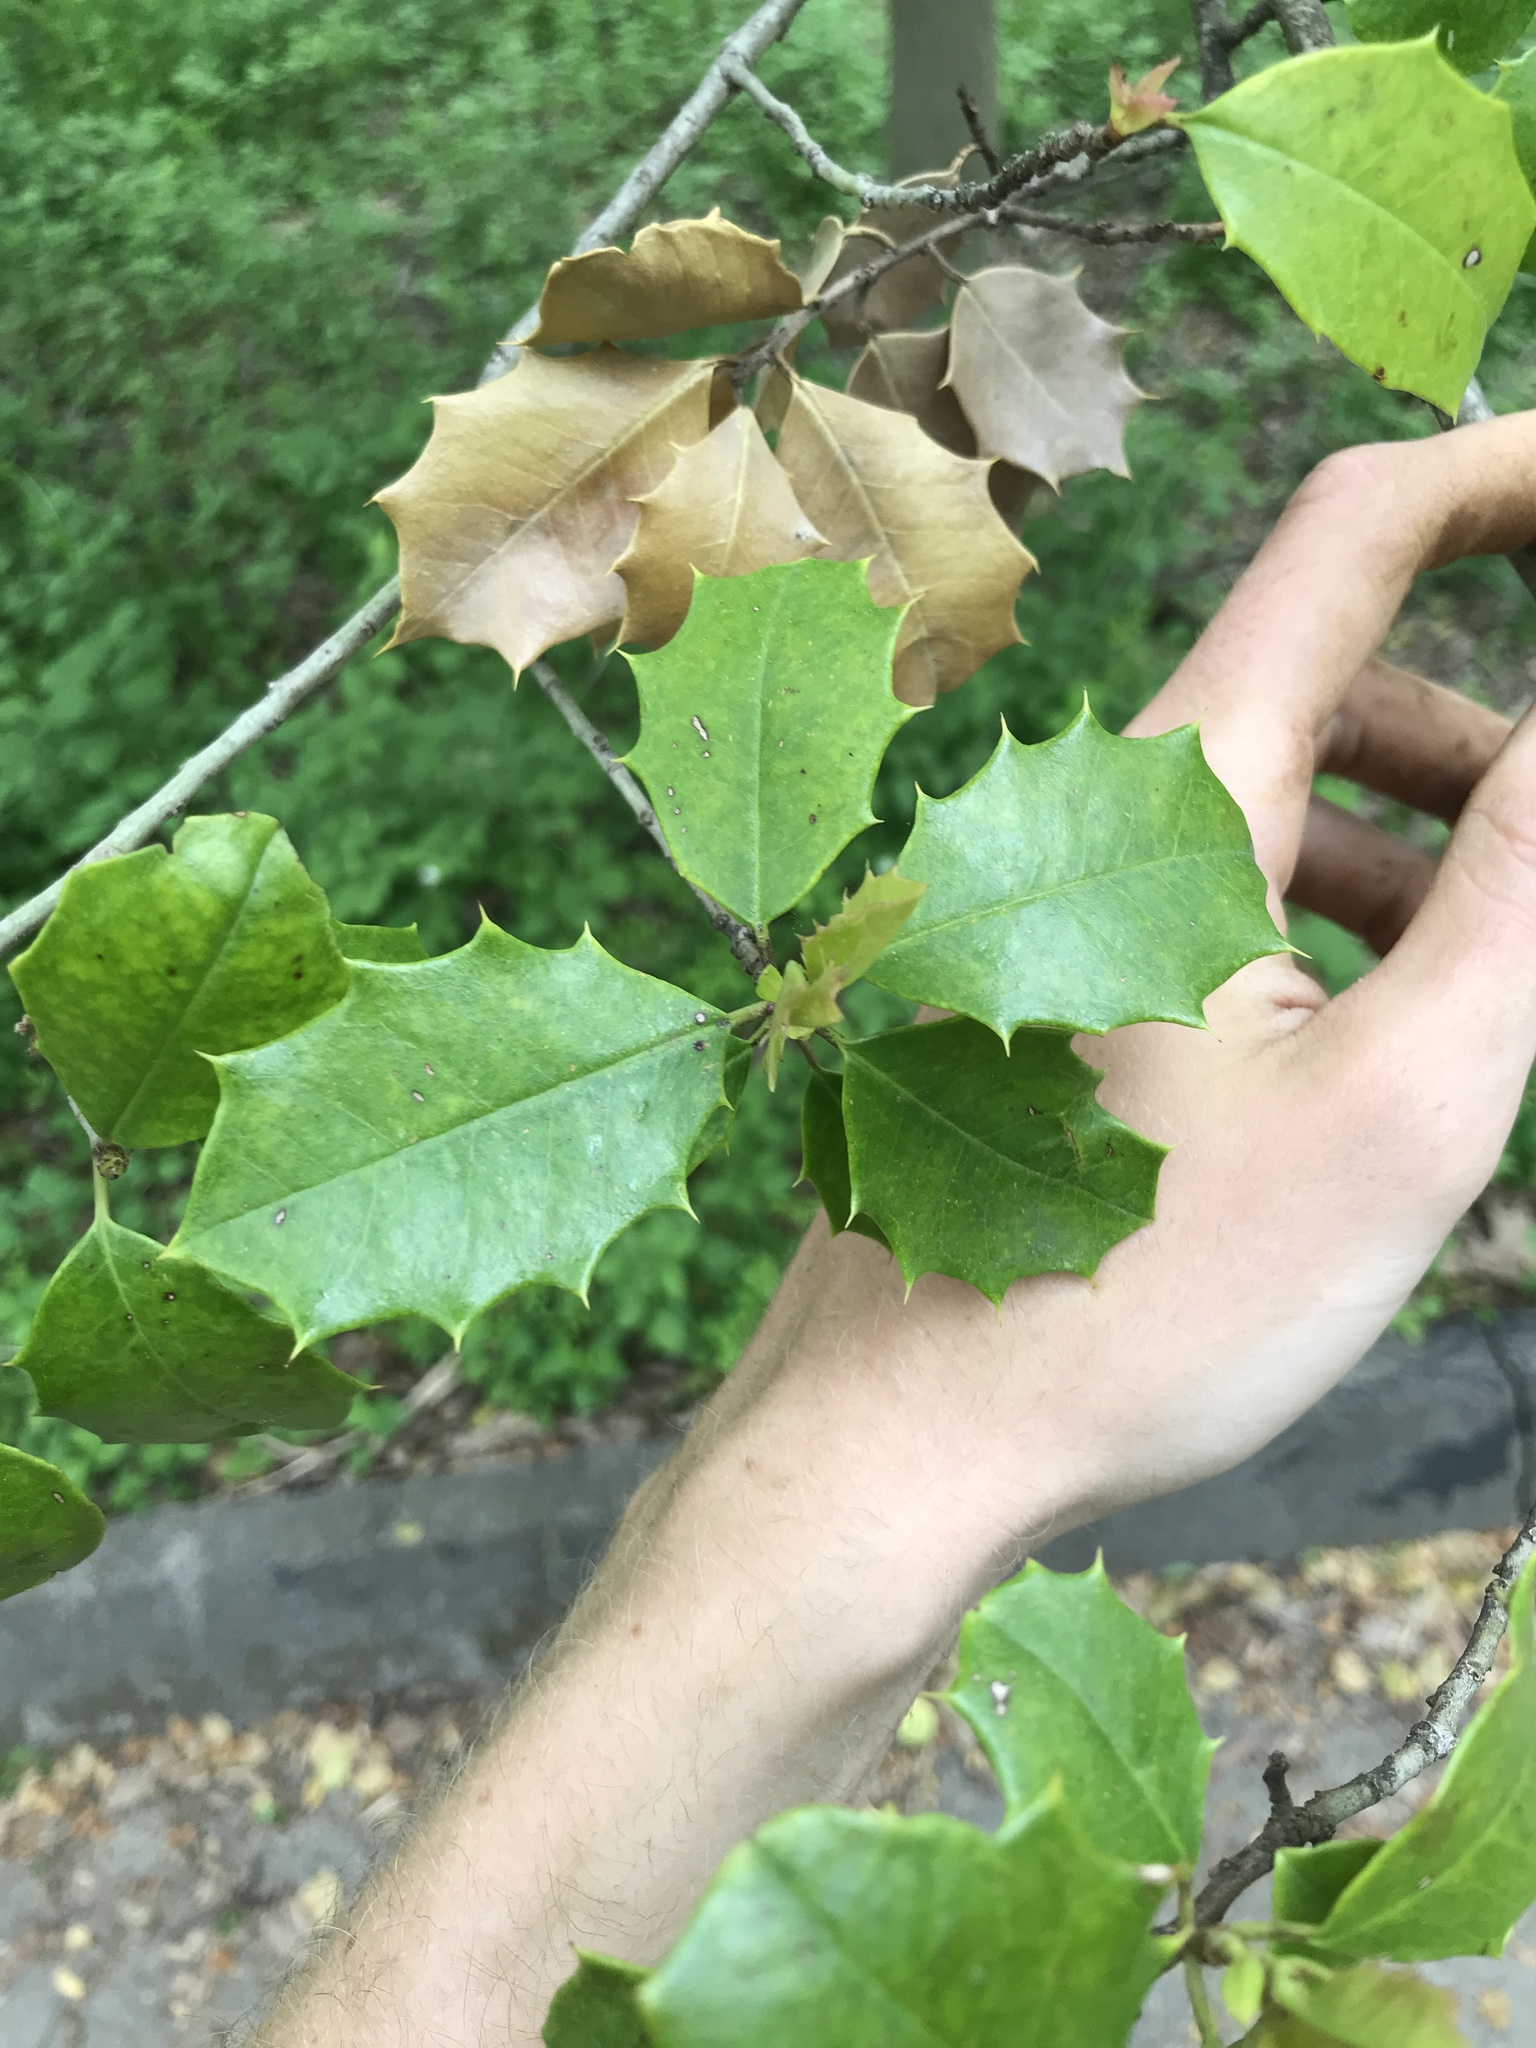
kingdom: Plantae
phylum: Tracheophyta
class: Magnoliopsida
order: Aquifoliales
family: Aquifoliaceae
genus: Ilex
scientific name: Ilex opaca
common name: American holly
